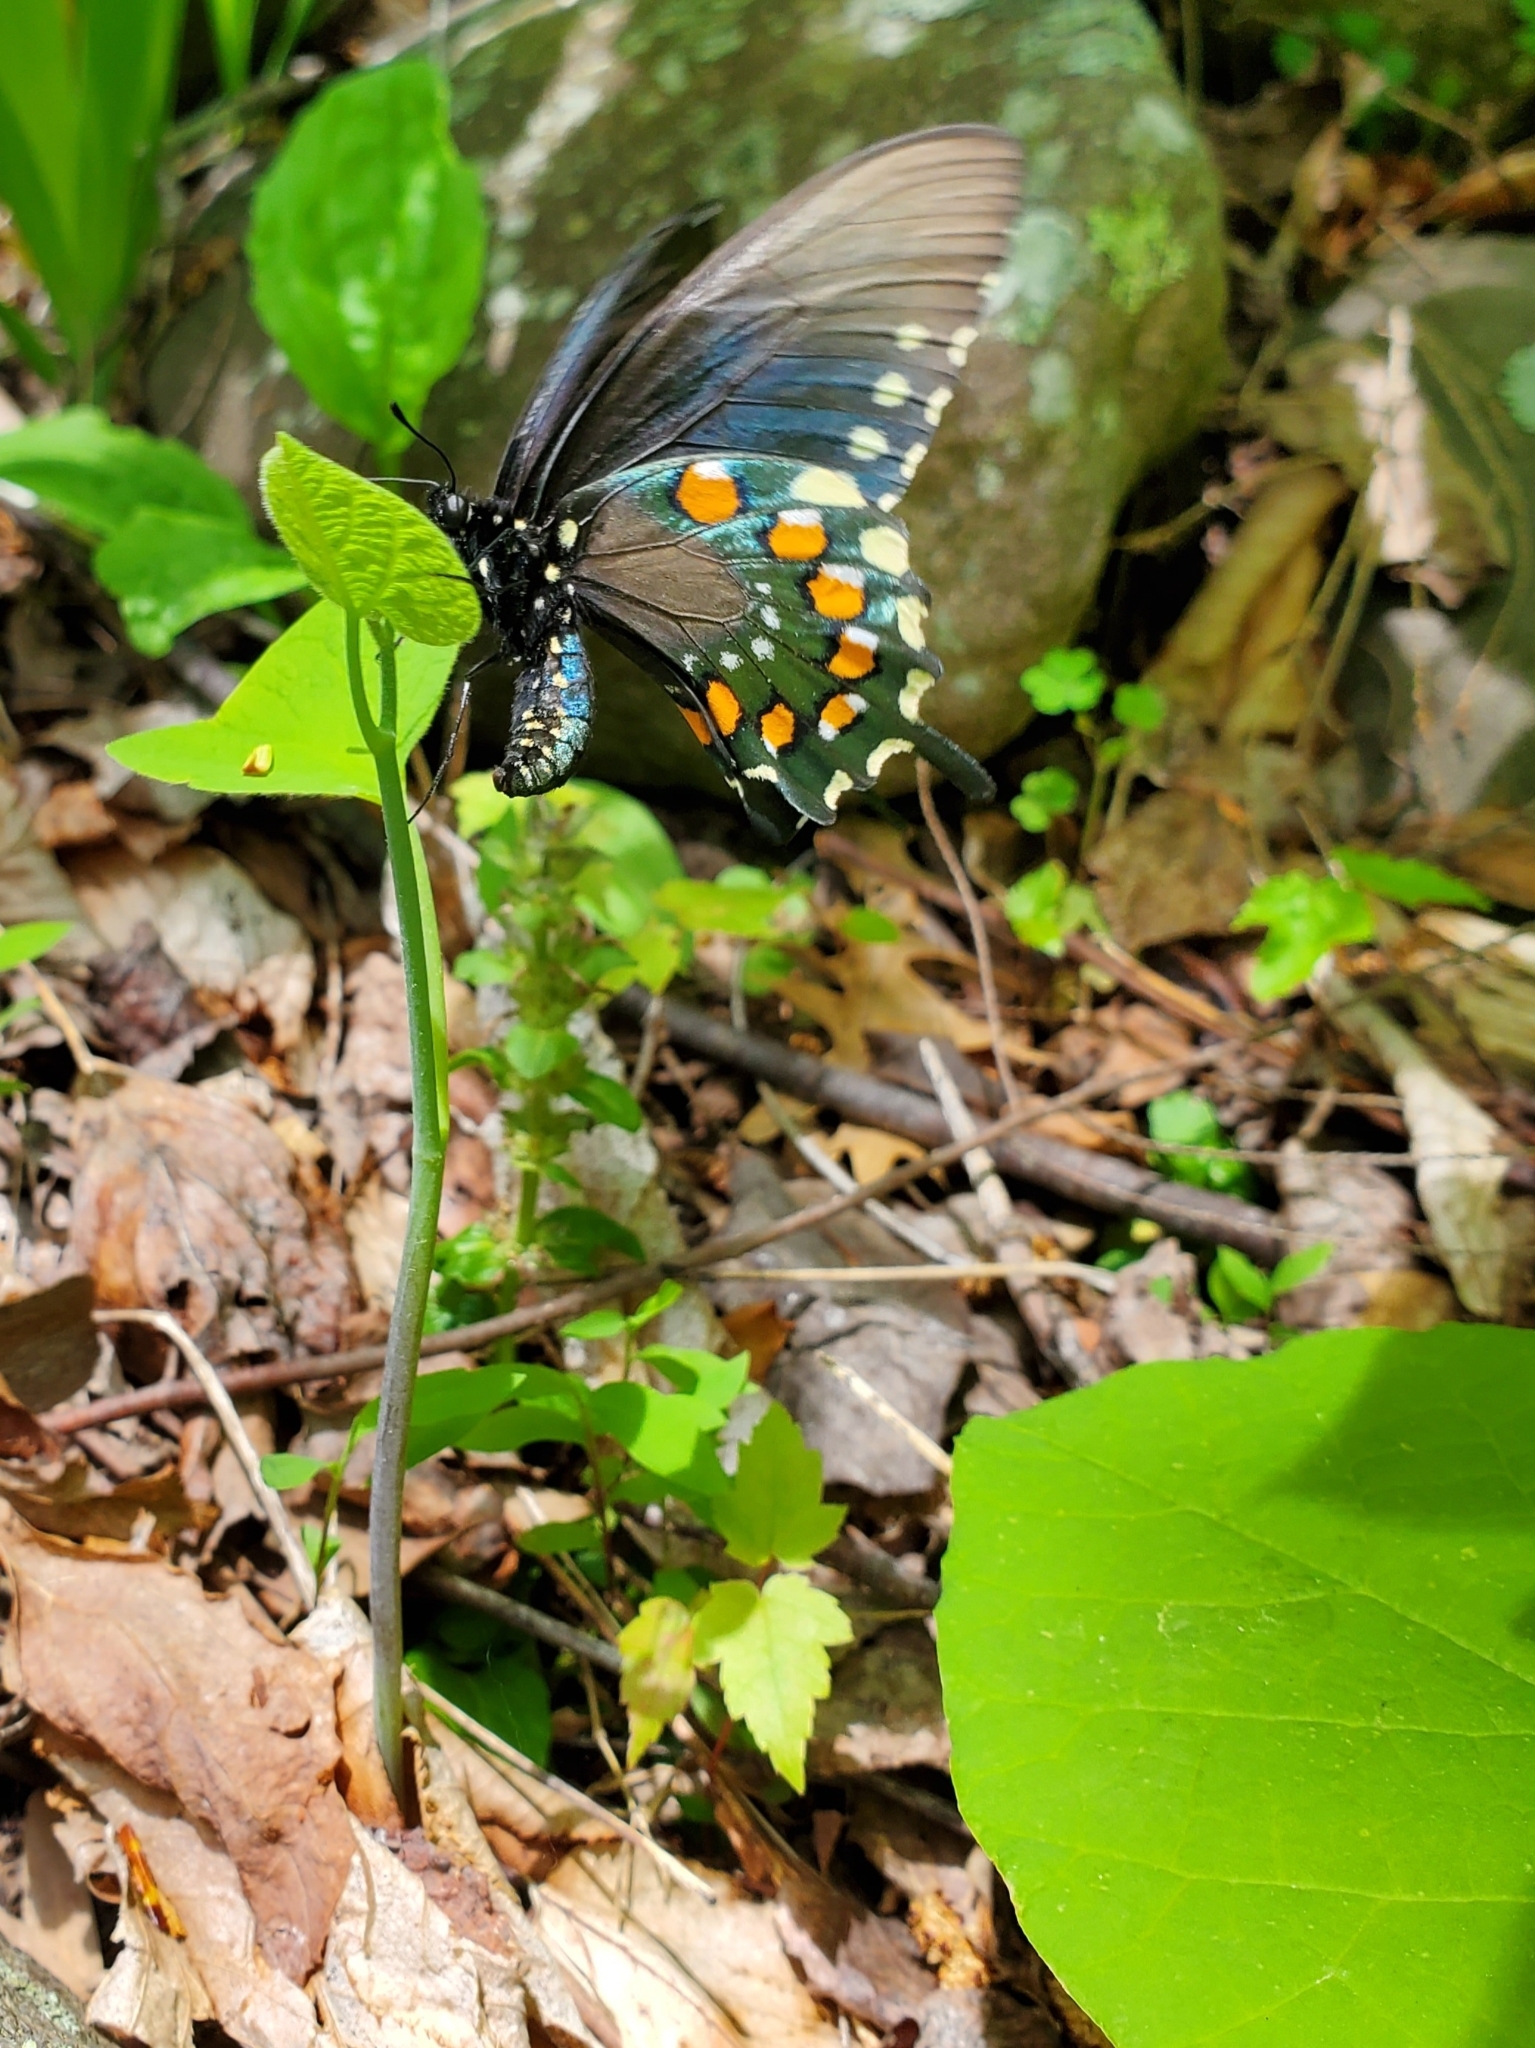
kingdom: Animalia
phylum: Arthropoda
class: Insecta
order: Lepidoptera
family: Papilionidae
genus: Battus
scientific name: Battus philenor
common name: Pipevine swallowtail
